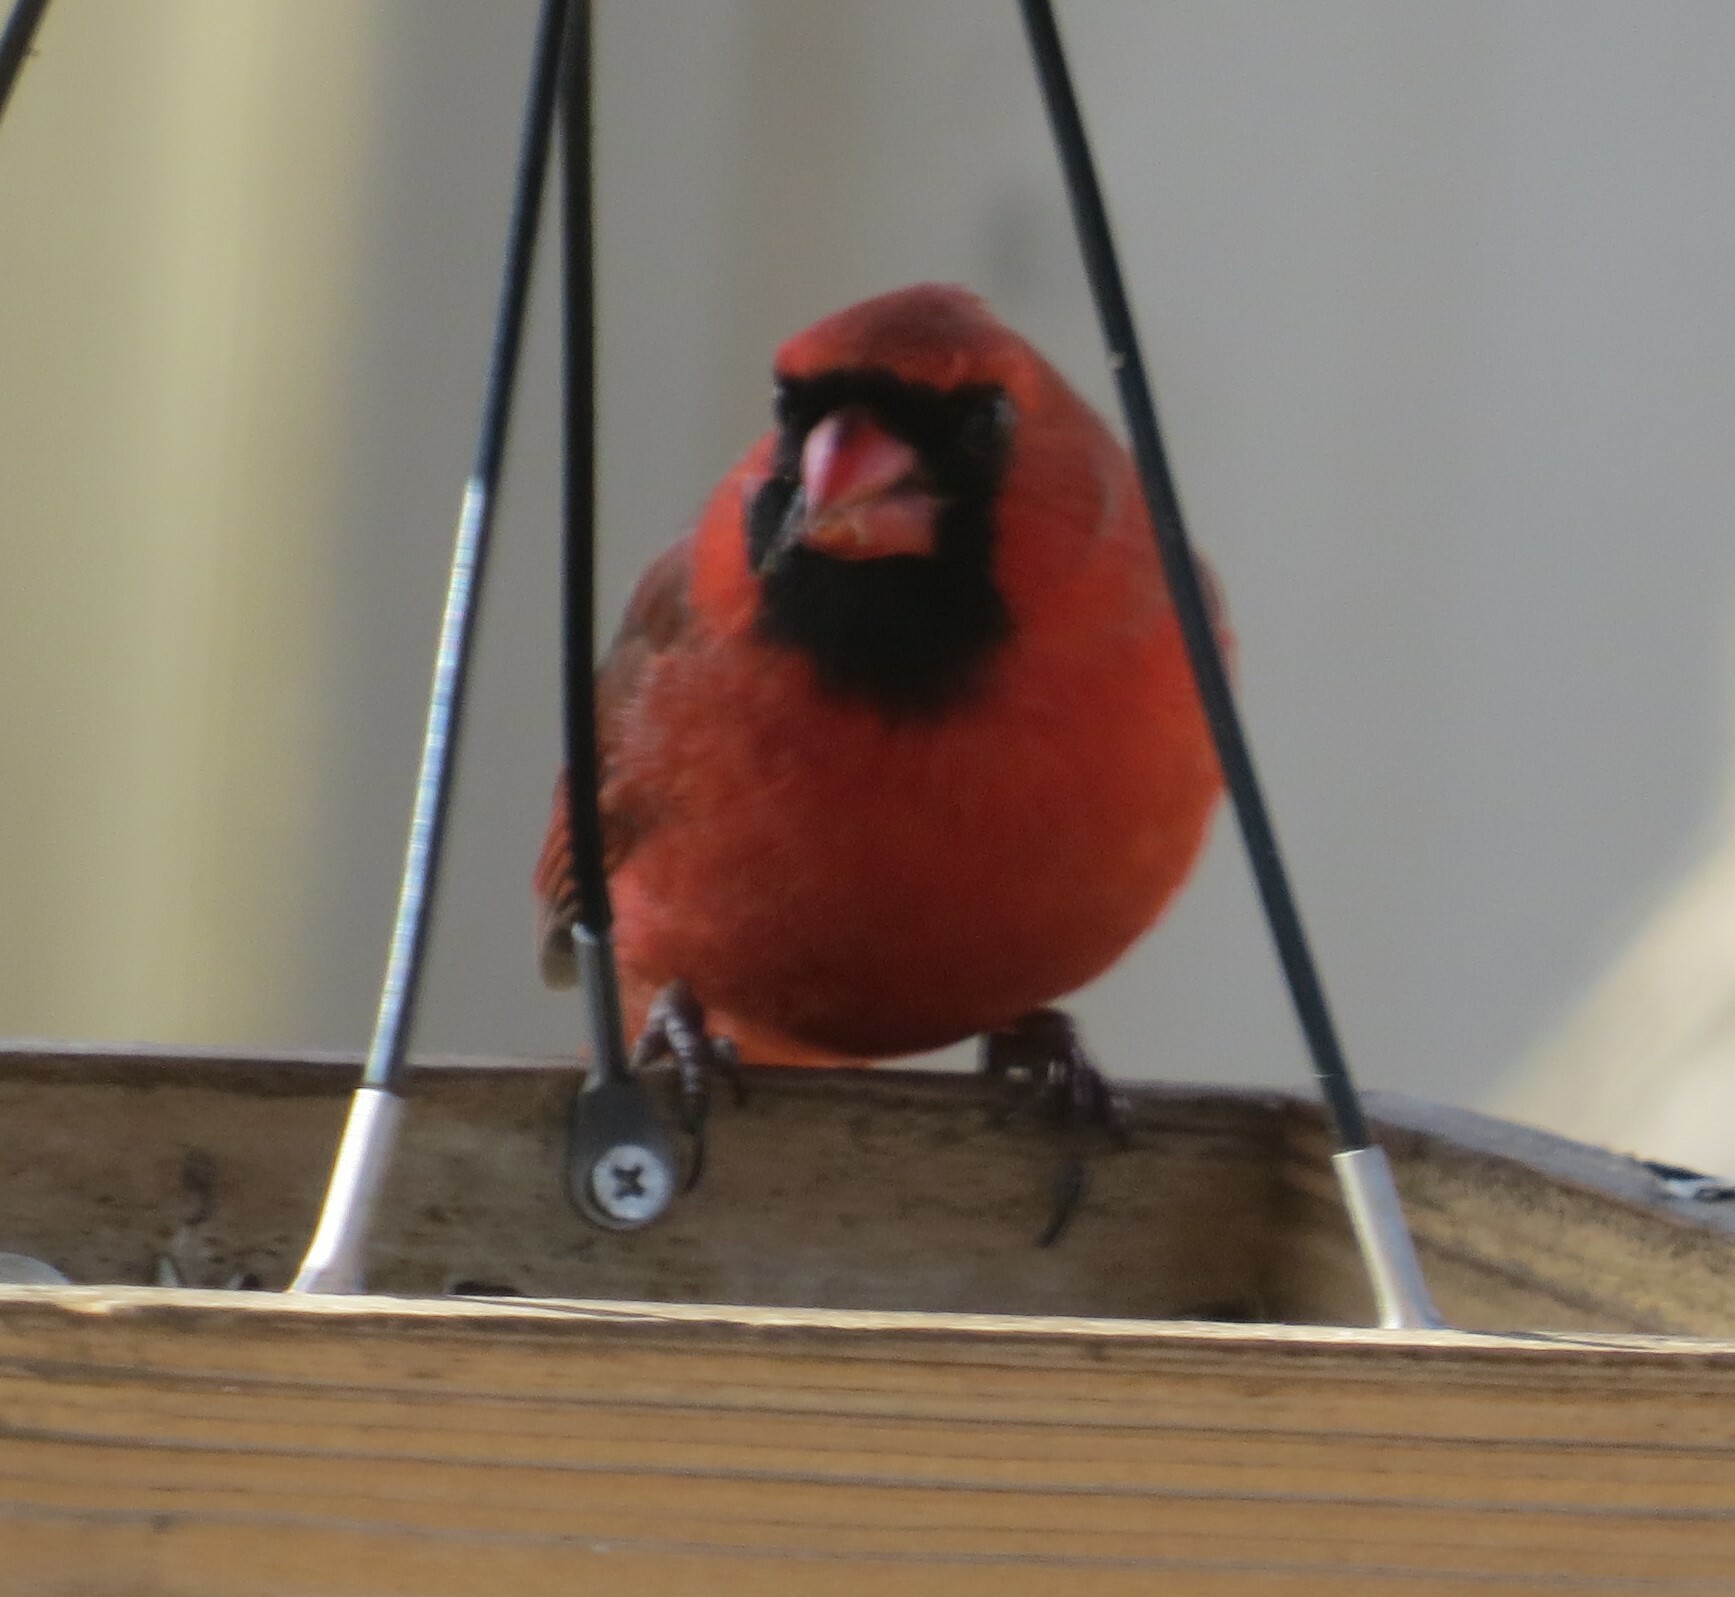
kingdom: Animalia
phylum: Chordata
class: Aves
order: Passeriformes
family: Cardinalidae
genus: Cardinalis
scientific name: Cardinalis cardinalis
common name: Northern cardinal
